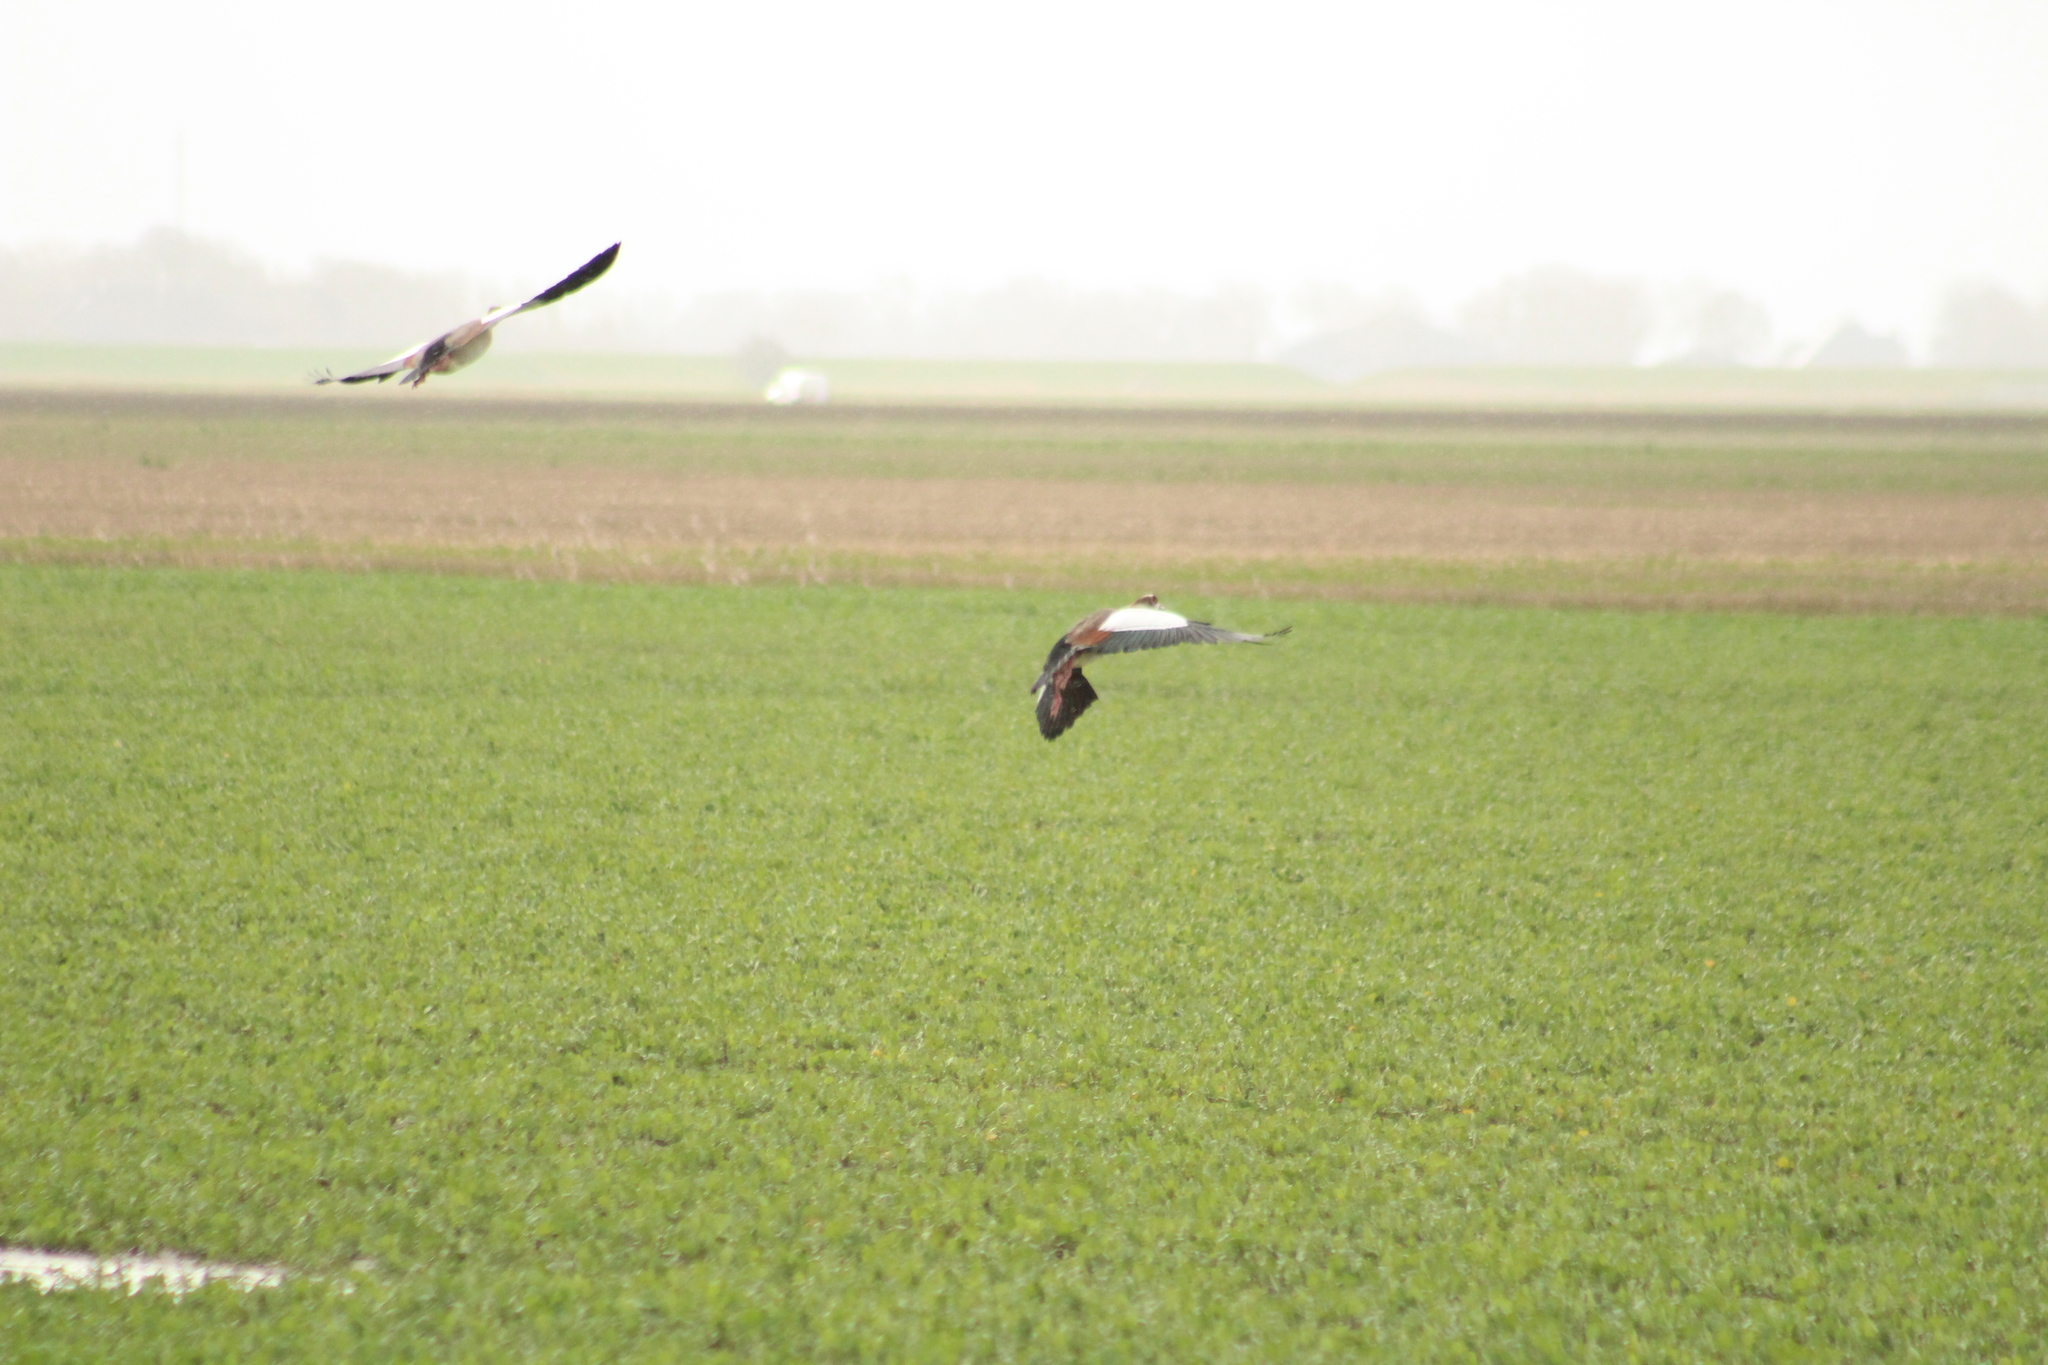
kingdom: Animalia
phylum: Chordata
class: Aves
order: Anseriformes
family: Anatidae
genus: Alopochen
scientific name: Alopochen aegyptiaca
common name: Egyptian goose
